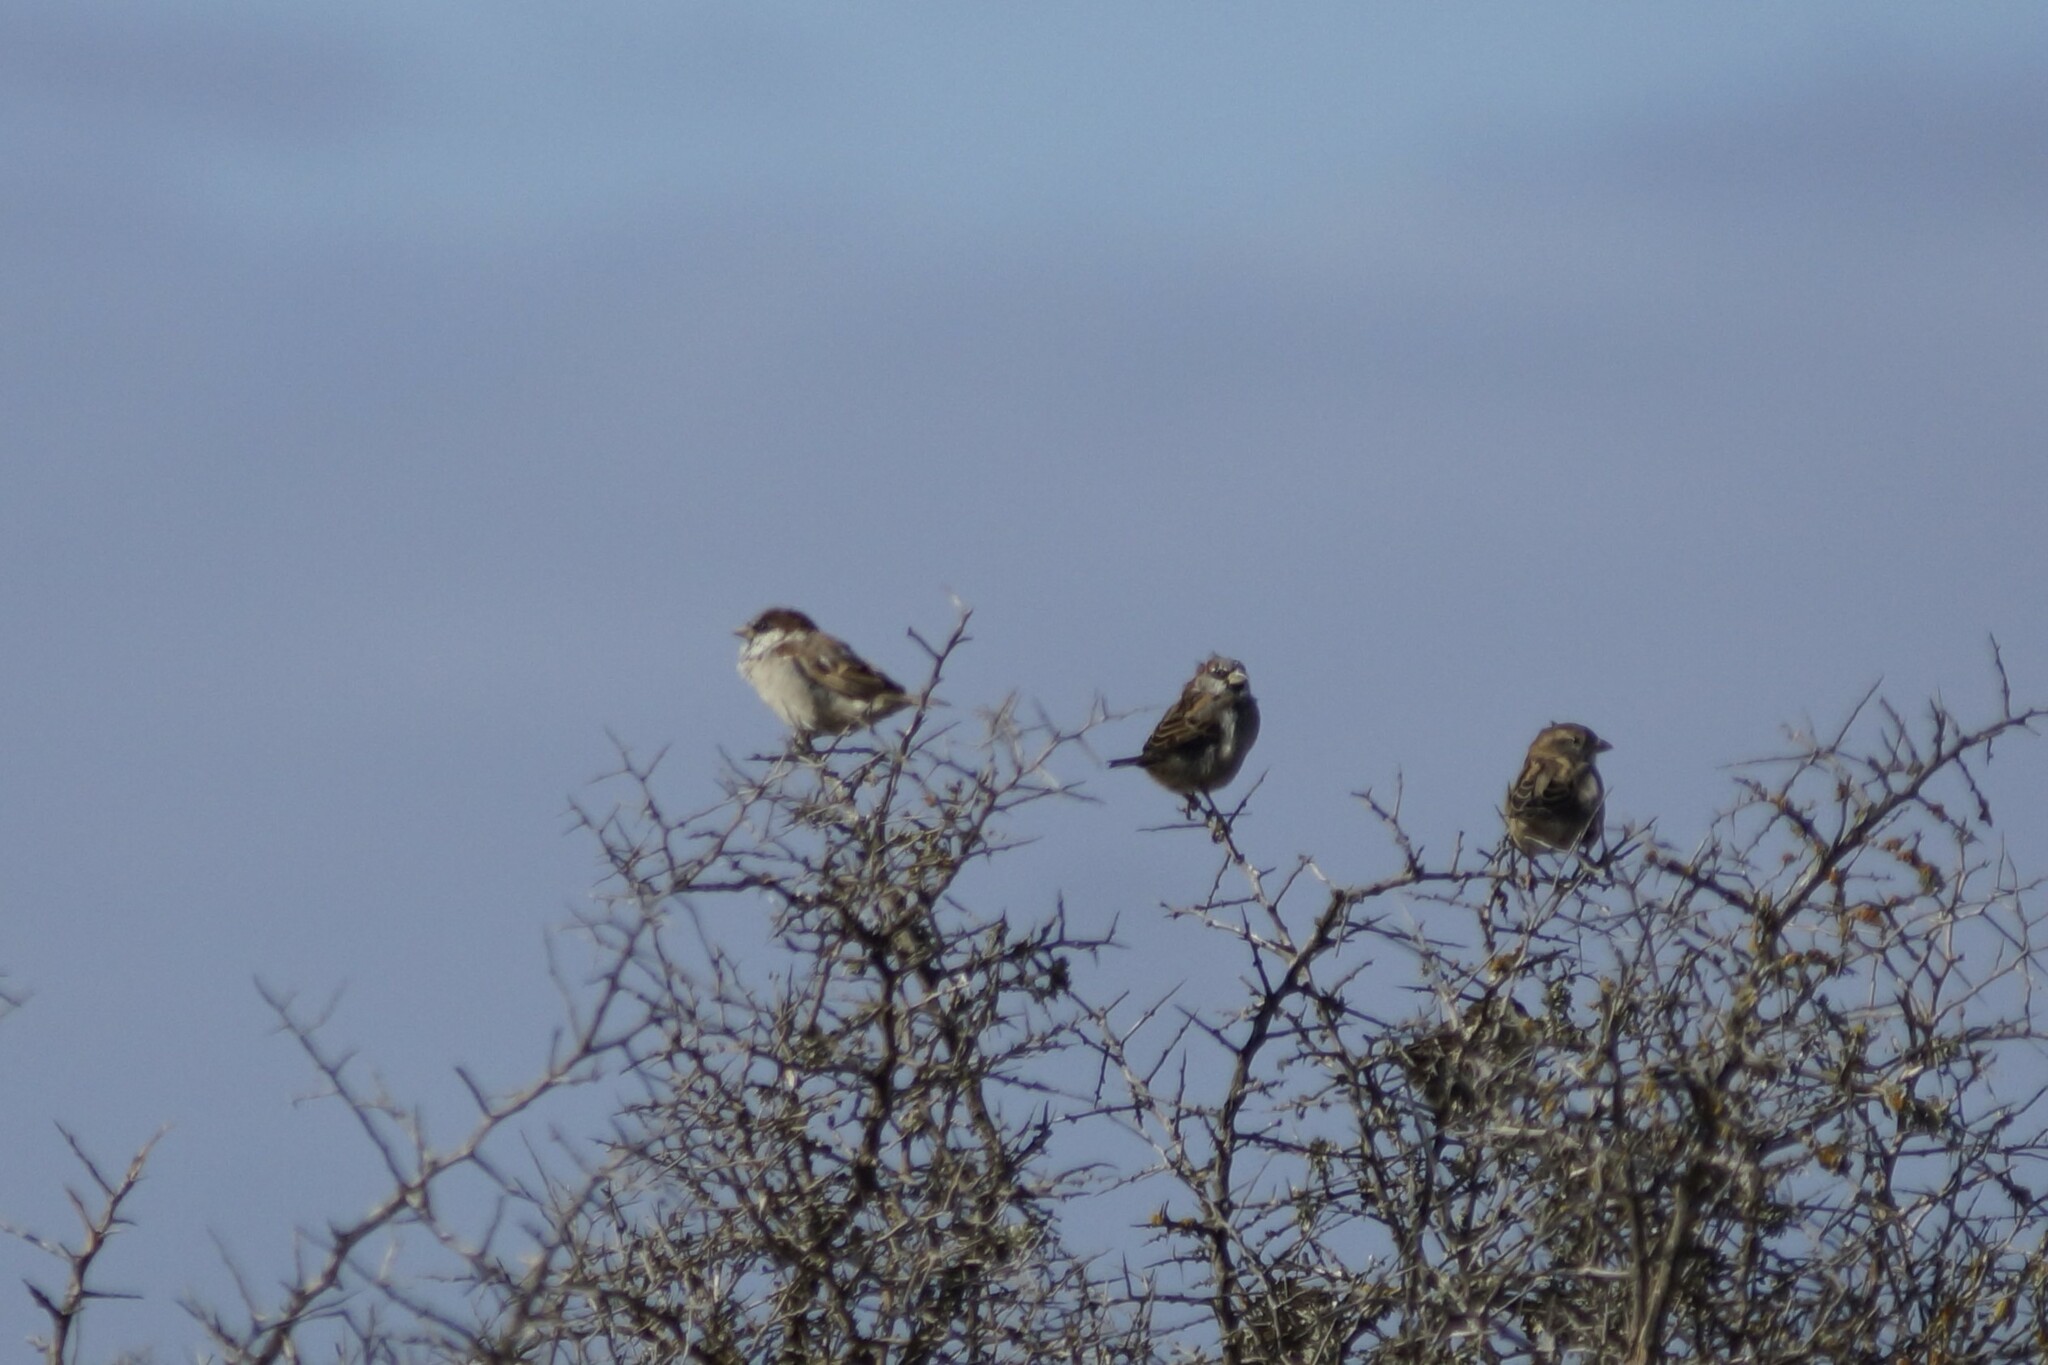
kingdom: Animalia
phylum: Chordata
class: Aves
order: Passeriformes
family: Passeridae
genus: Passer
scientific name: Passer domesticus
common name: House sparrow
